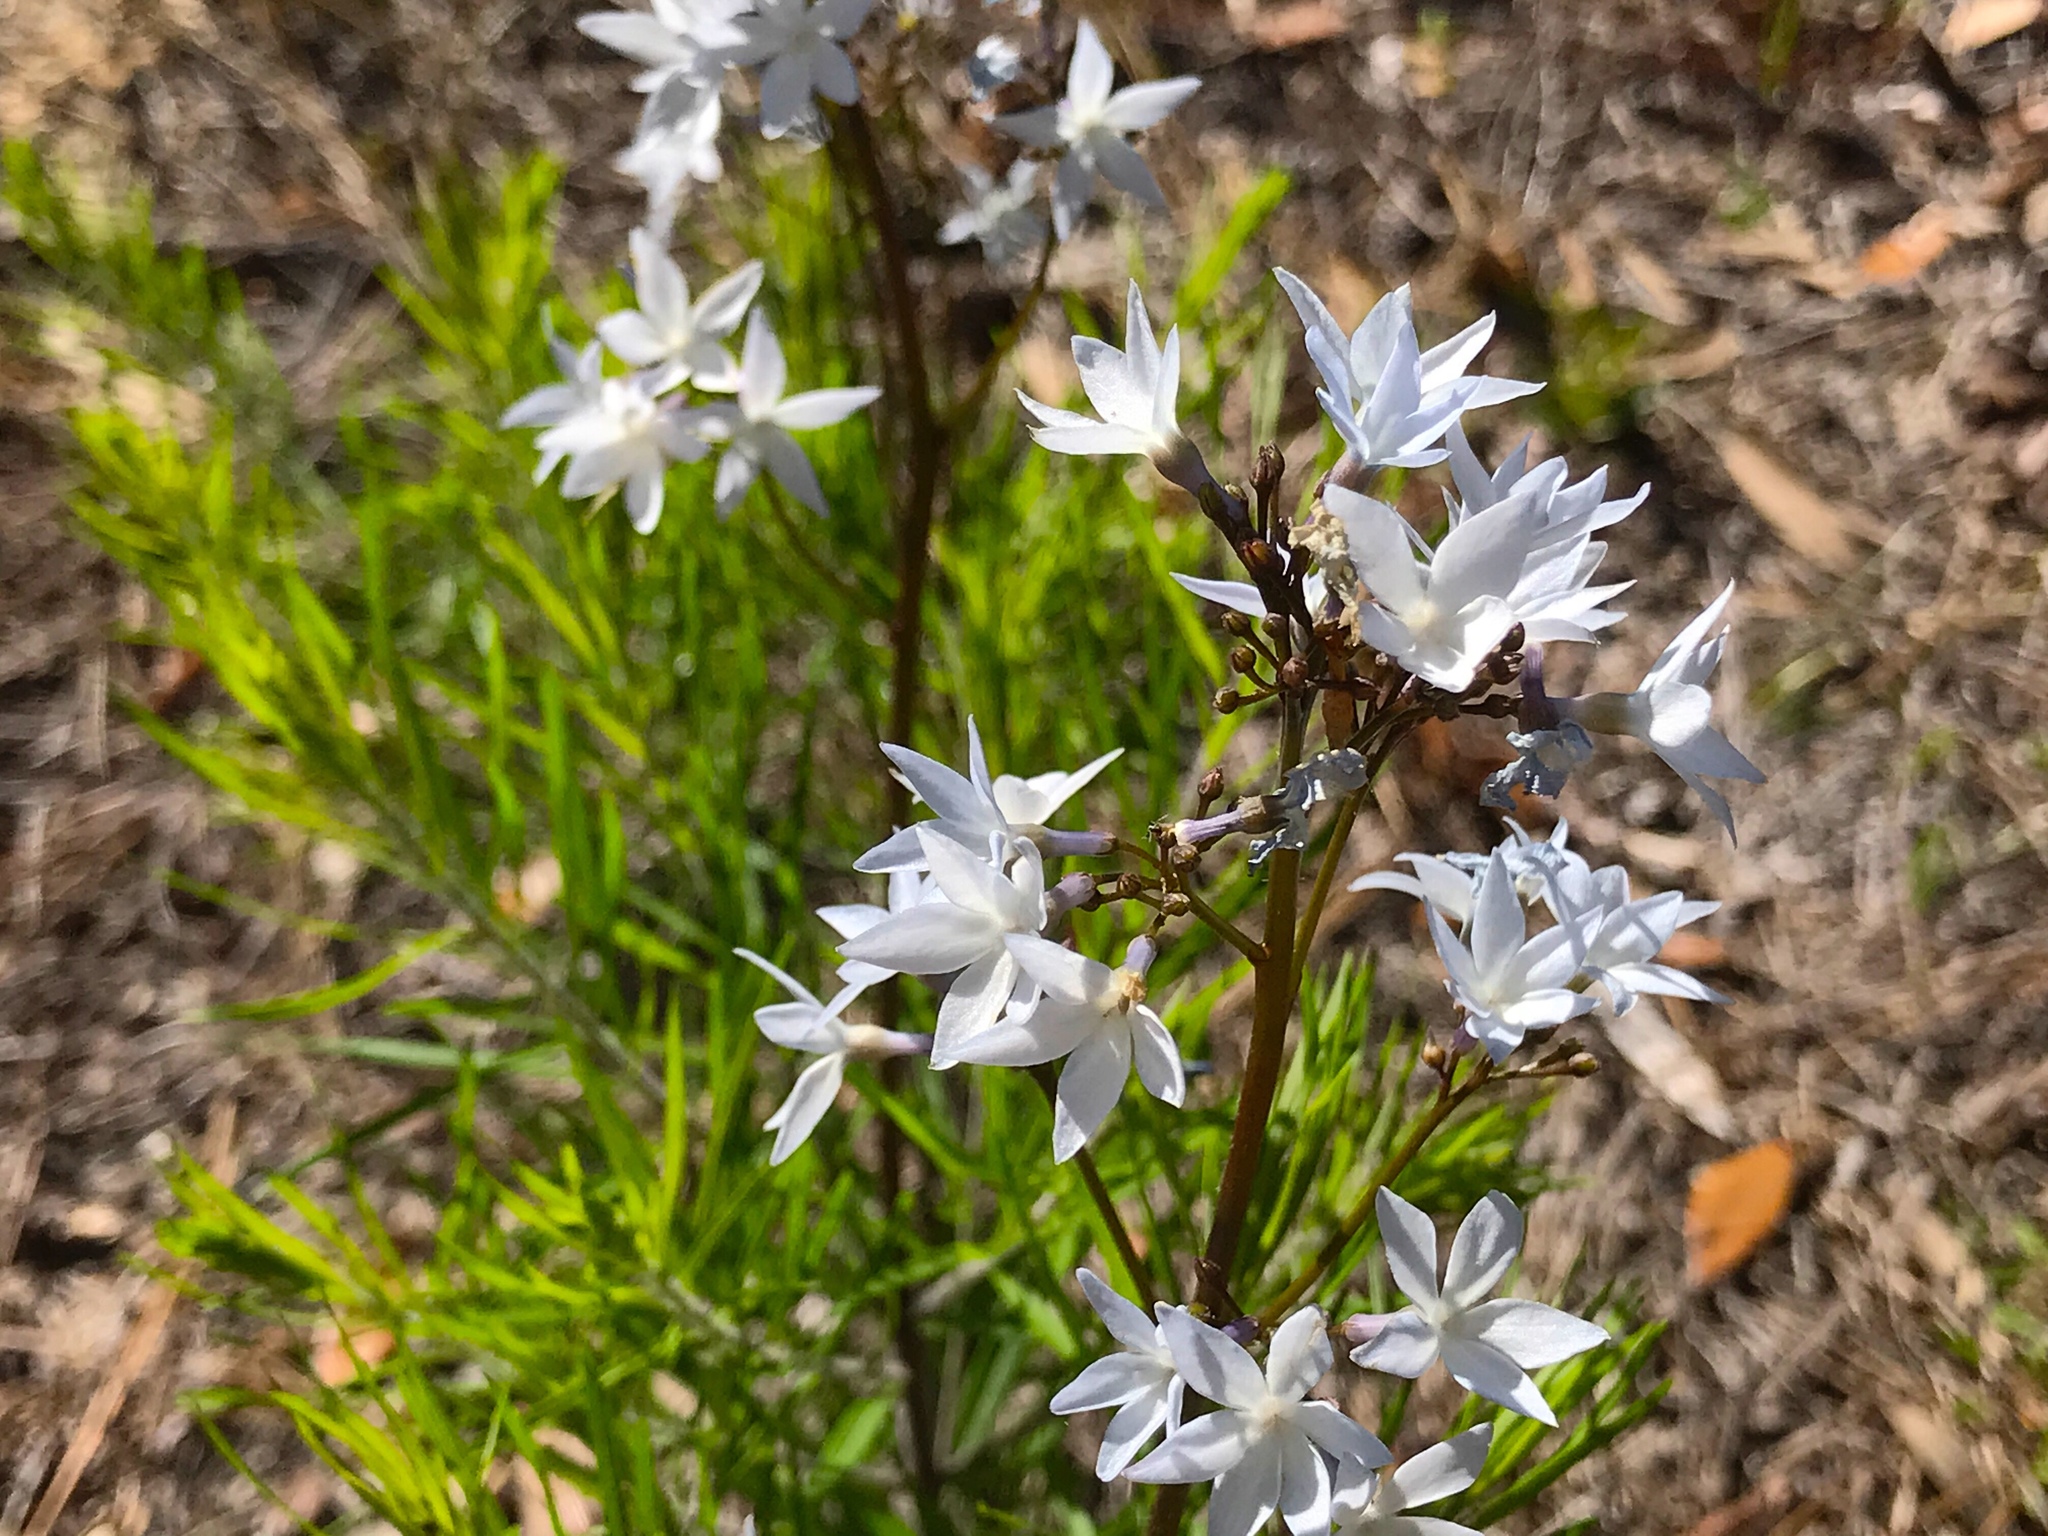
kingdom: Plantae
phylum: Tracheophyta
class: Magnoliopsida
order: Gentianales
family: Apocynaceae
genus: Amsonia
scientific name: Amsonia ciliata
